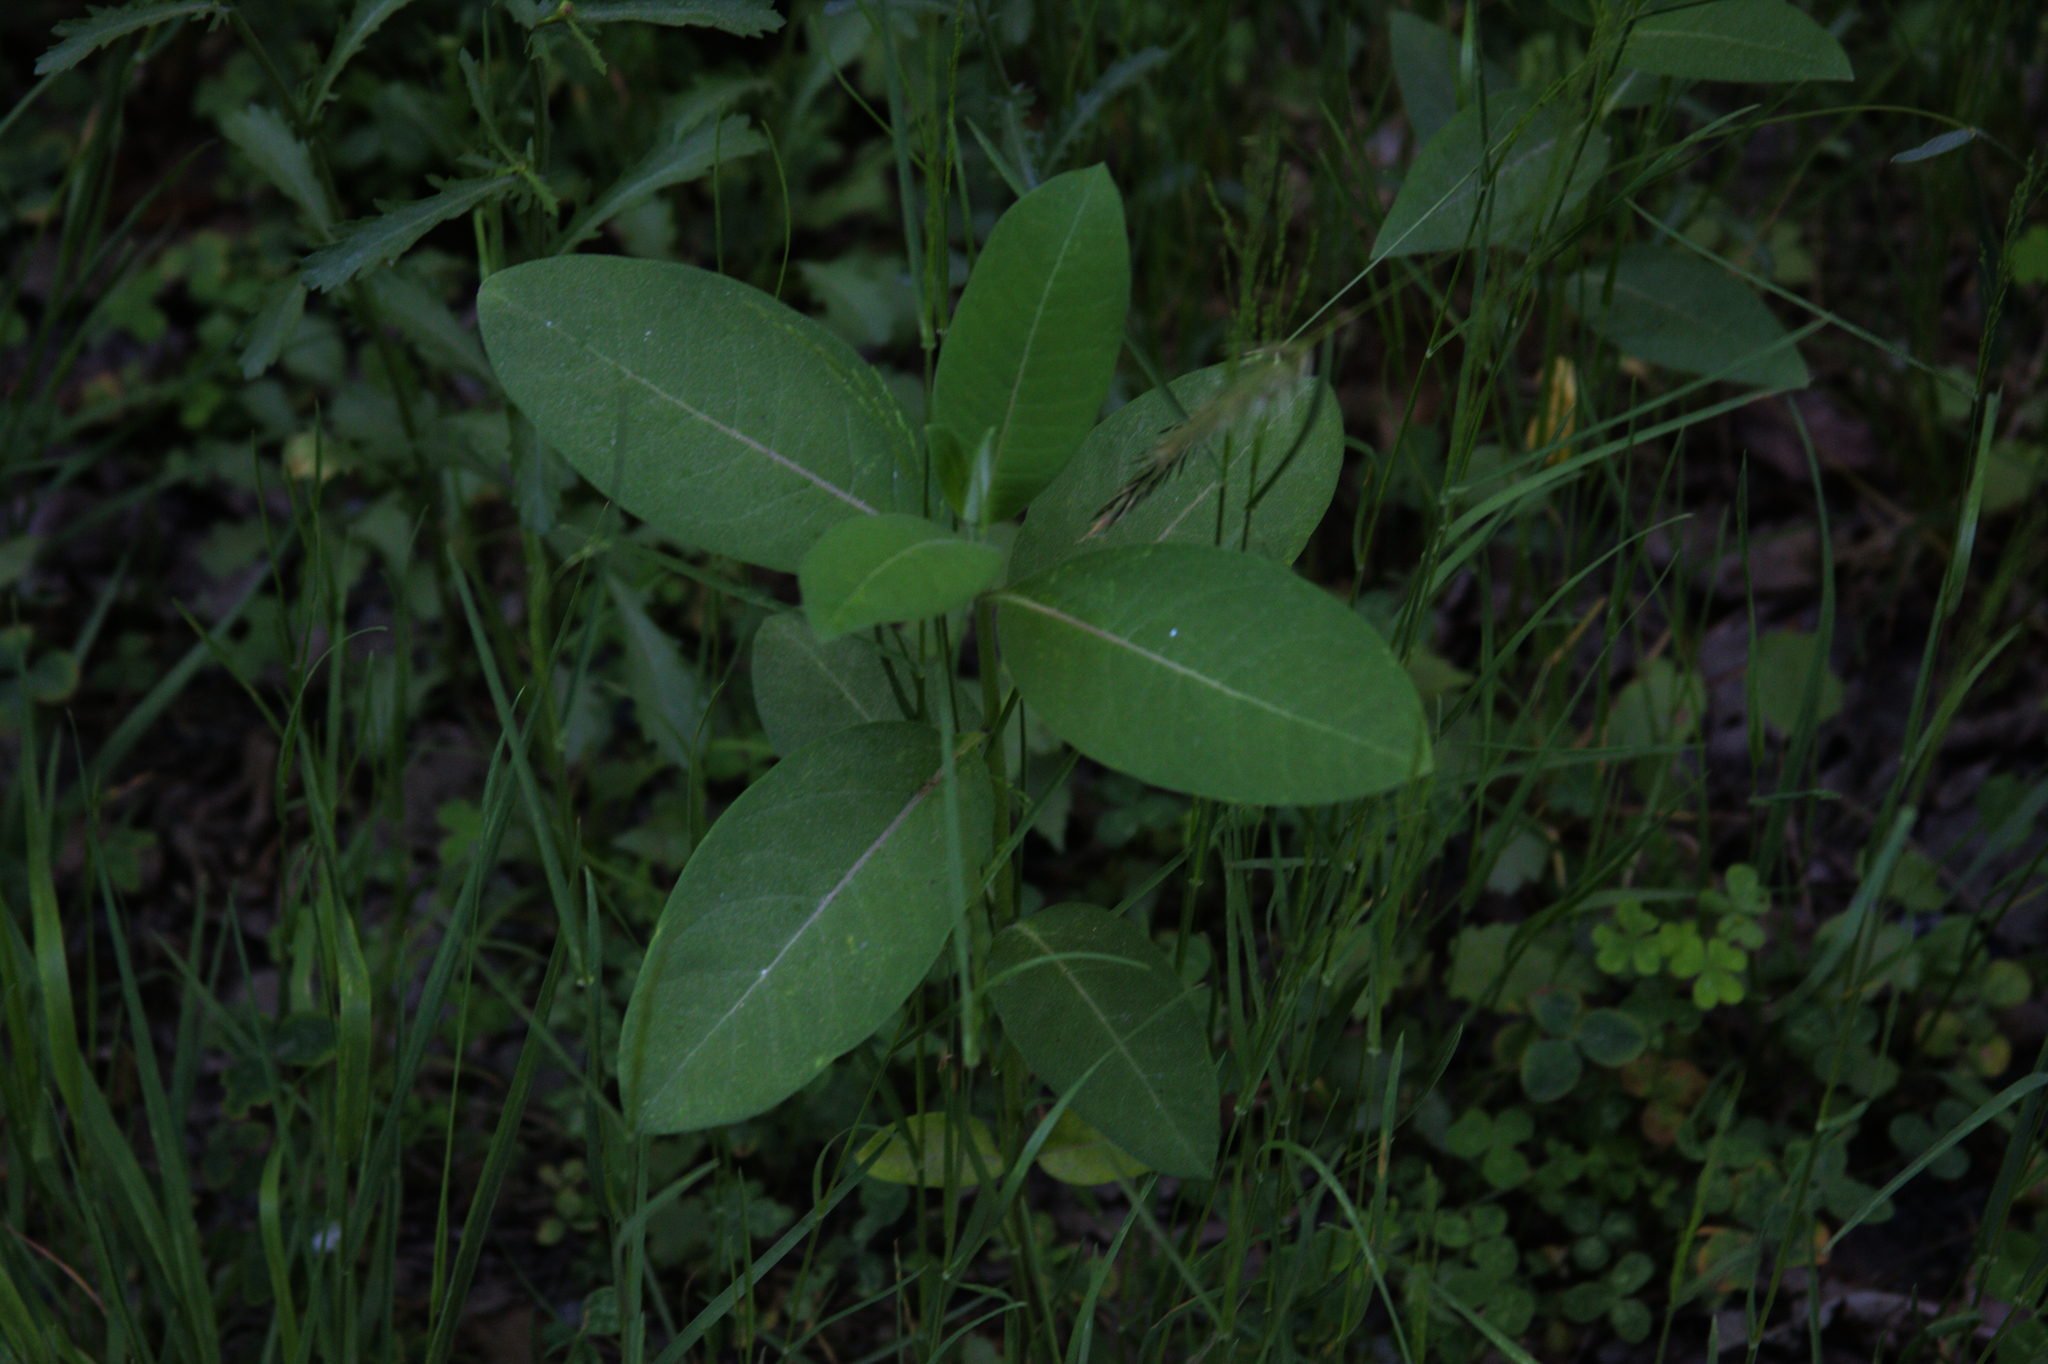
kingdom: Plantae
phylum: Tracheophyta
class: Magnoliopsida
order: Gentianales
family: Apocynaceae
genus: Asclepias
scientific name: Asclepias syriaca
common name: Common milkweed
